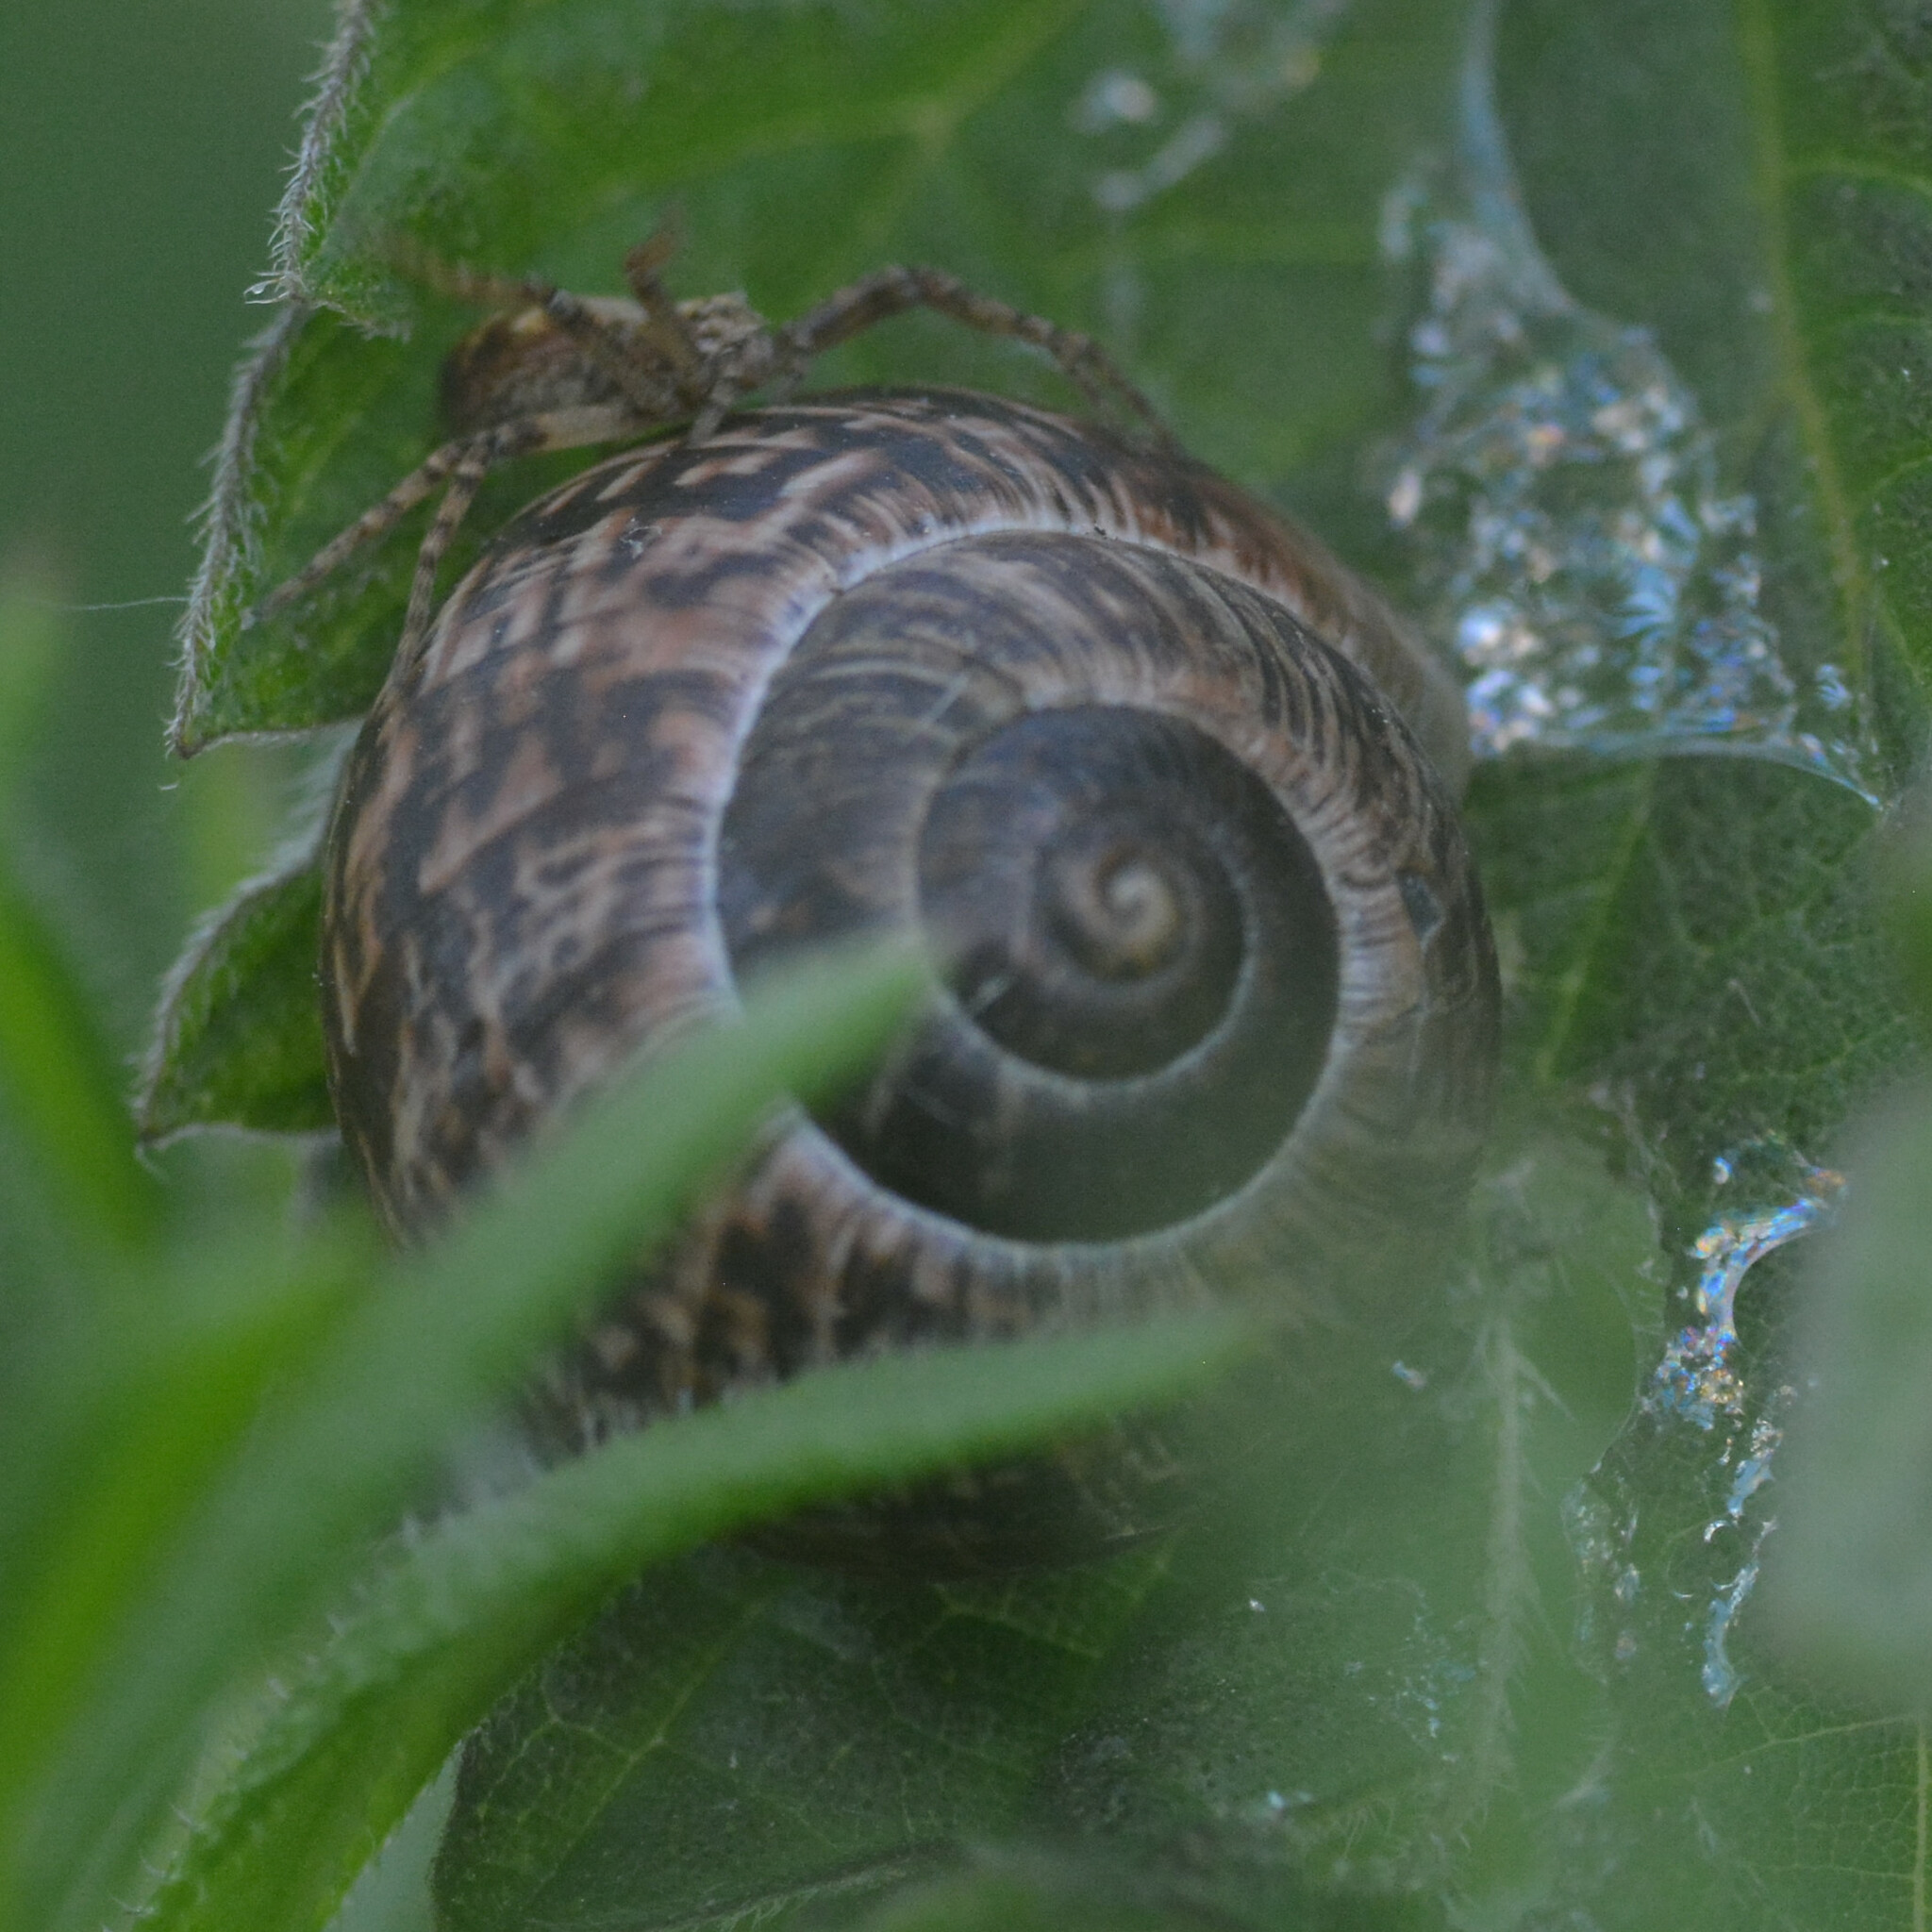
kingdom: Animalia
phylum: Mollusca
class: Gastropoda
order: Stylommatophora
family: Helicidae
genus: Arianta
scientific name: Arianta arbustorum
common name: Copse snail
